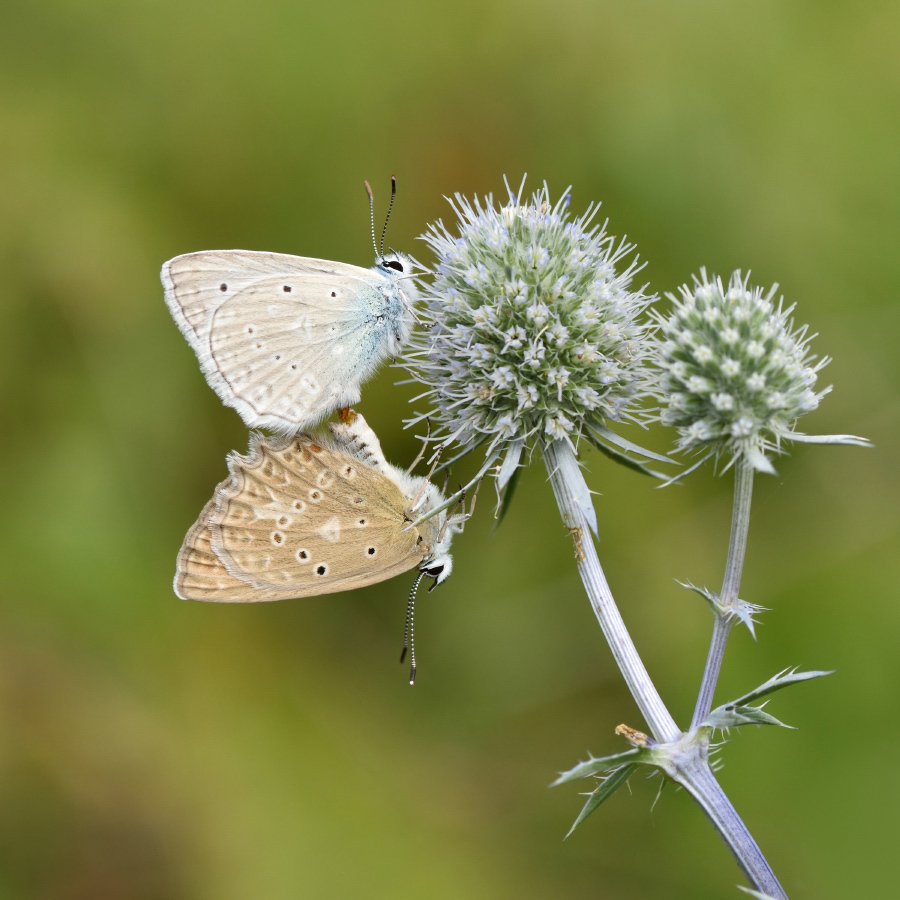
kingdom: Animalia
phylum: Arthropoda
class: Insecta
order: Lepidoptera
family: Lycaenidae
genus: Polyommatus
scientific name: Polyommatus daphnis
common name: Meleager's blue
